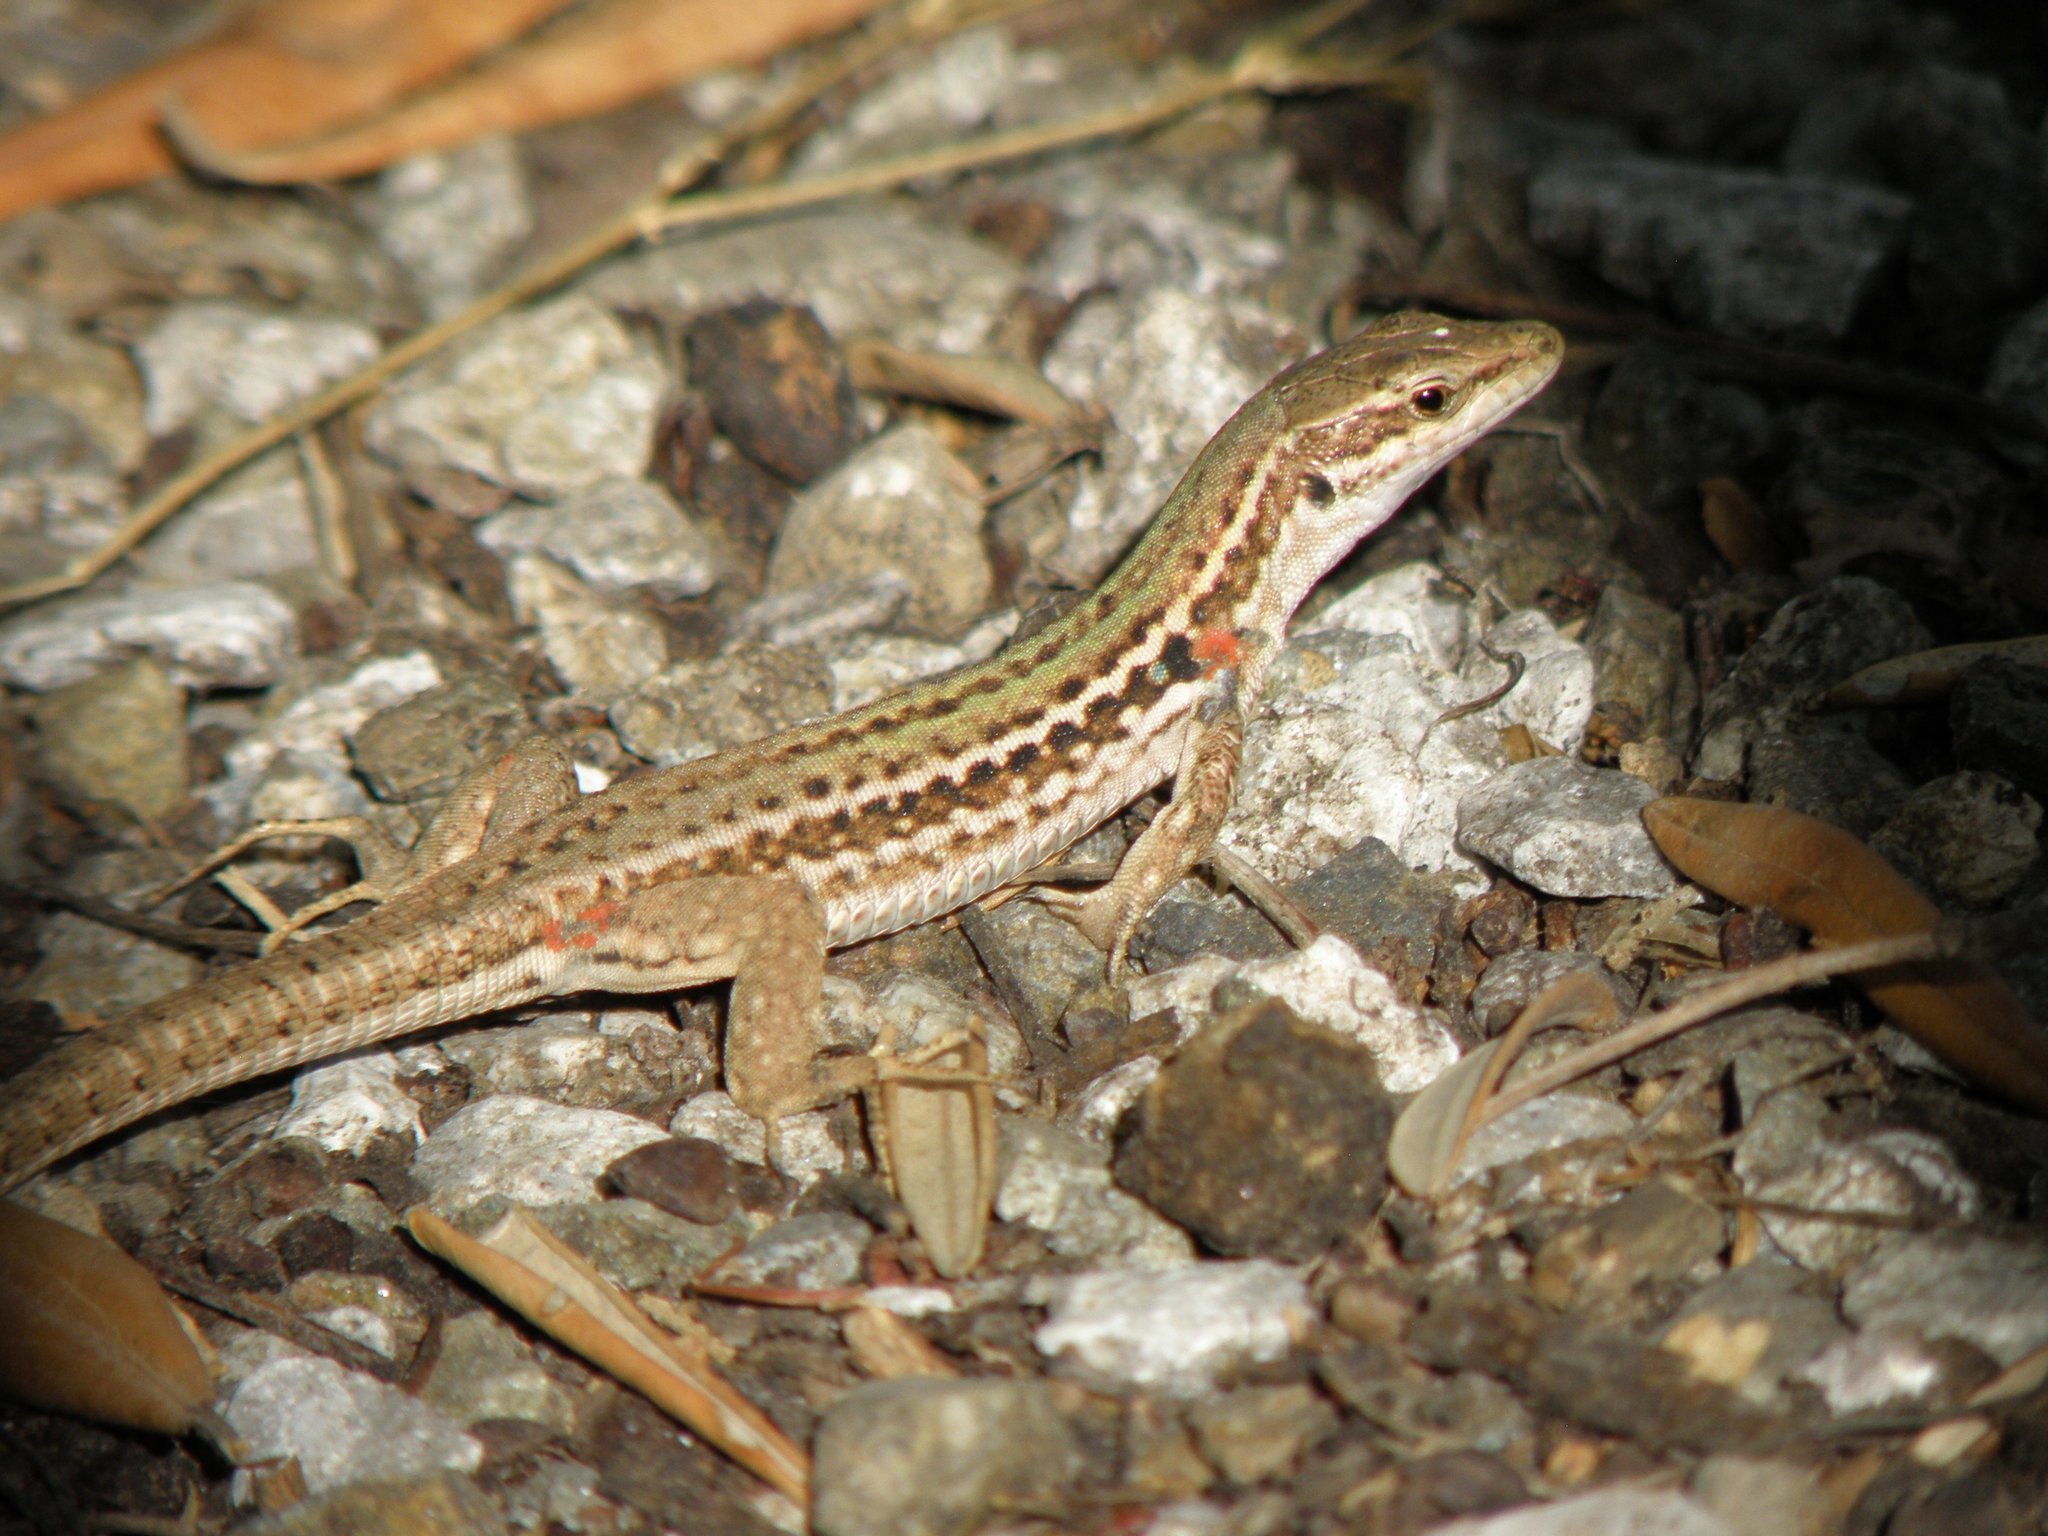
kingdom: Animalia
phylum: Chordata
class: Squamata
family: Lacertidae
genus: Podarcis
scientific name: Podarcis siculus
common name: Italian wall lizard
